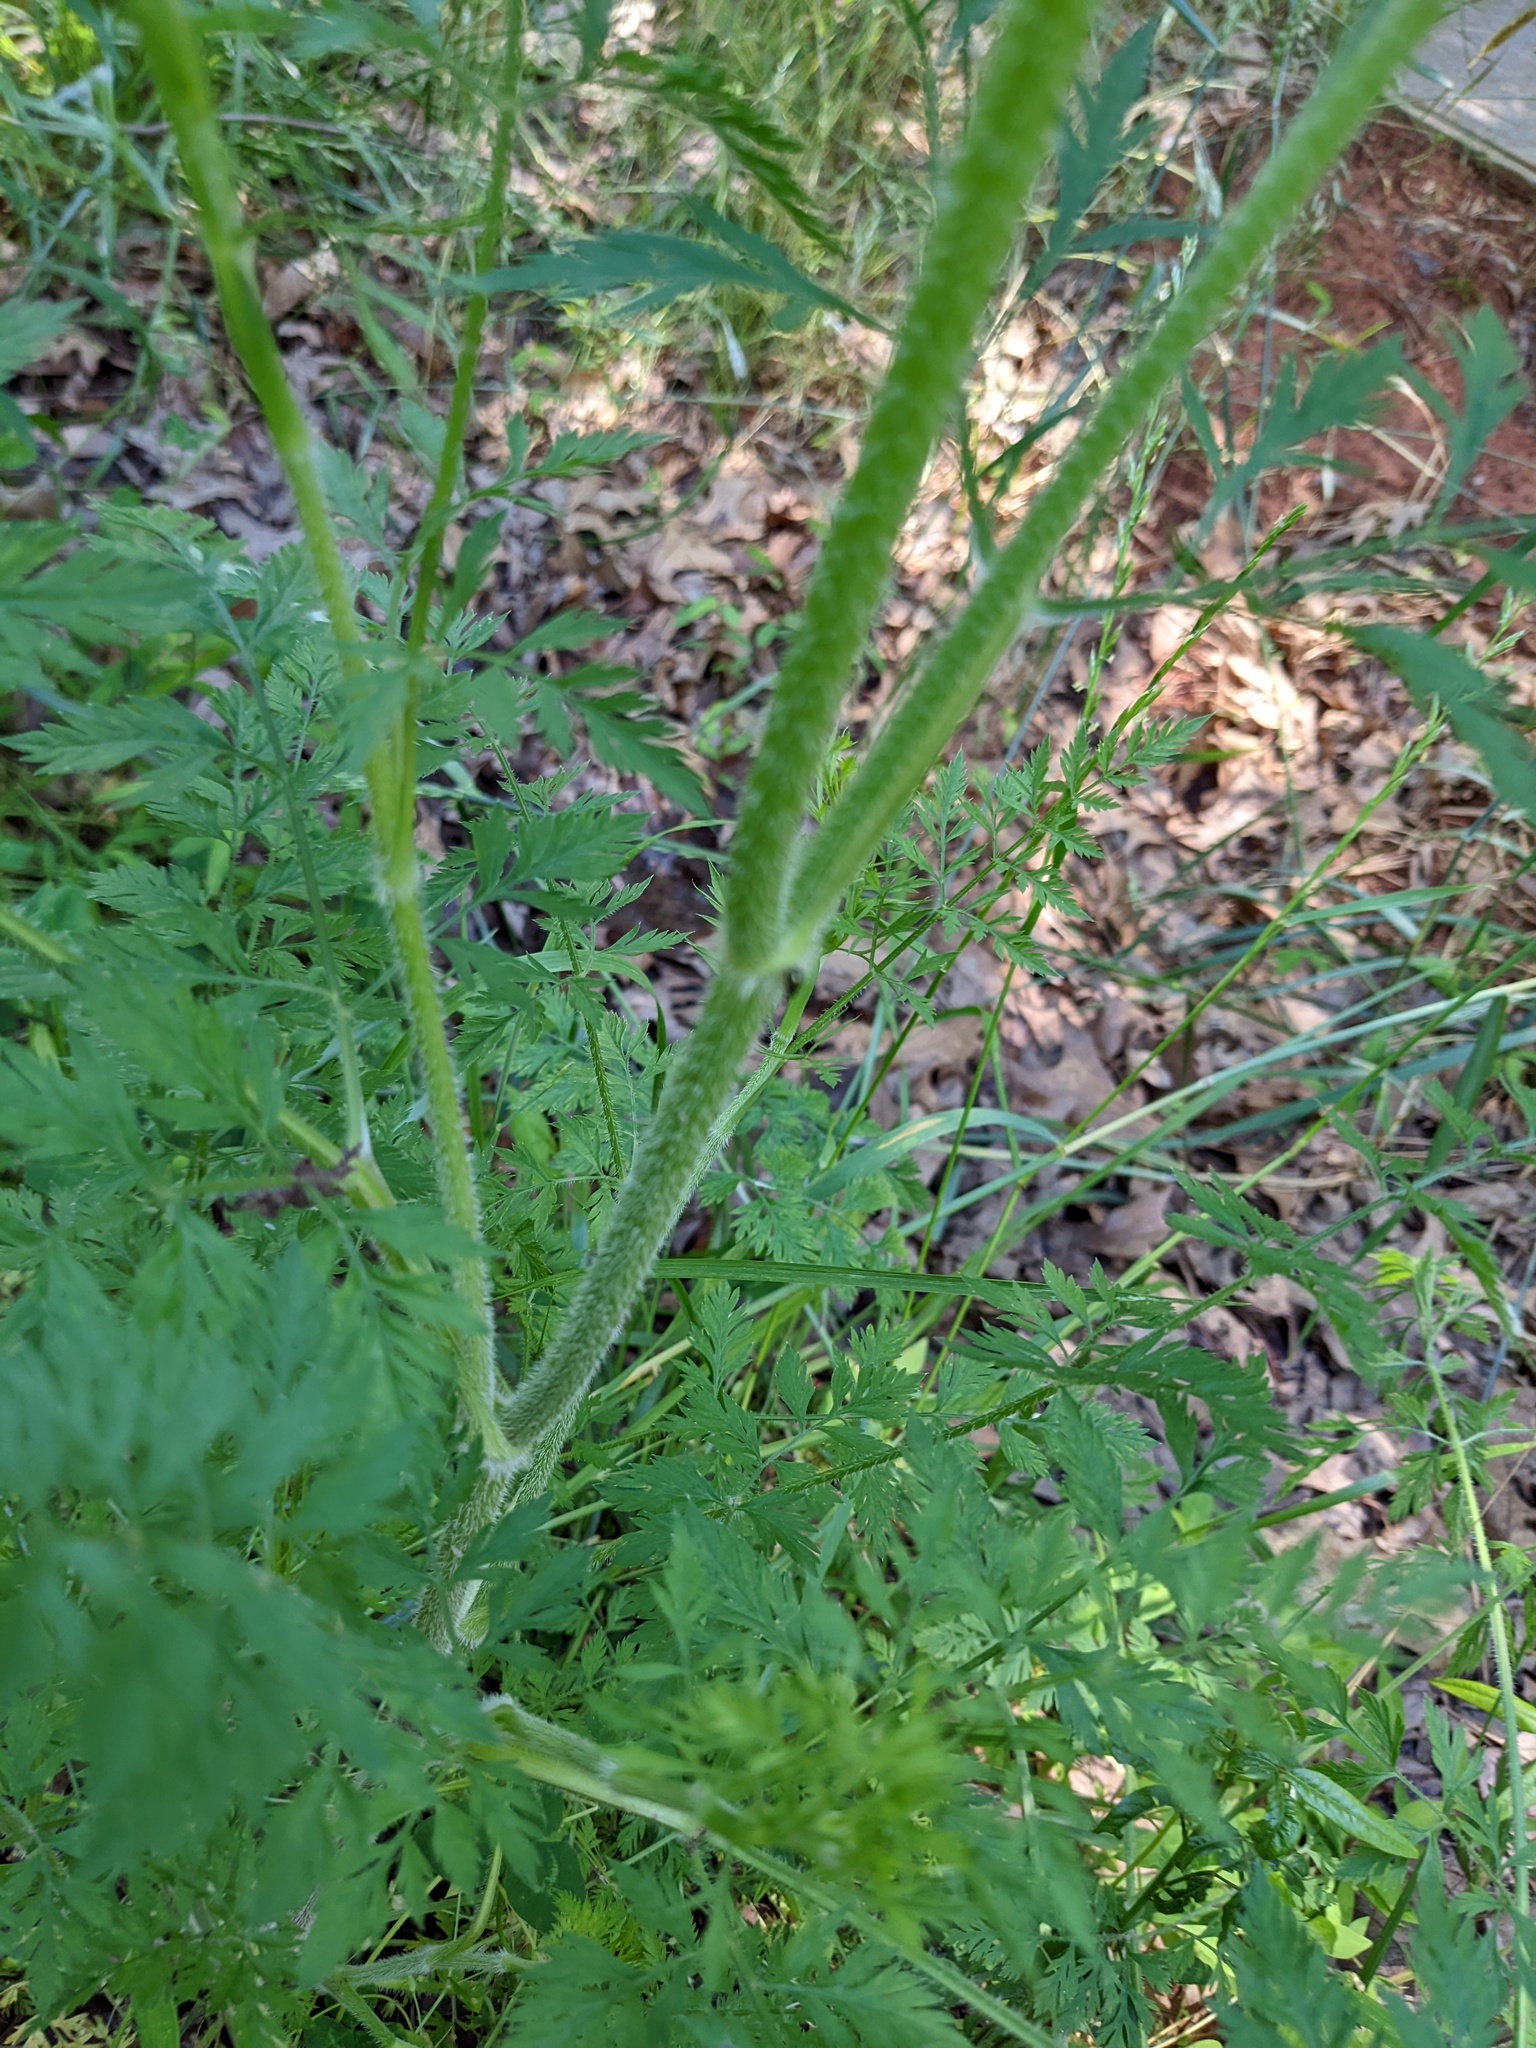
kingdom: Plantae
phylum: Tracheophyta
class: Magnoliopsida
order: Apiales
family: Apiaceae
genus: Daucus
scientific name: Daucus carota
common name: Wild carrot
